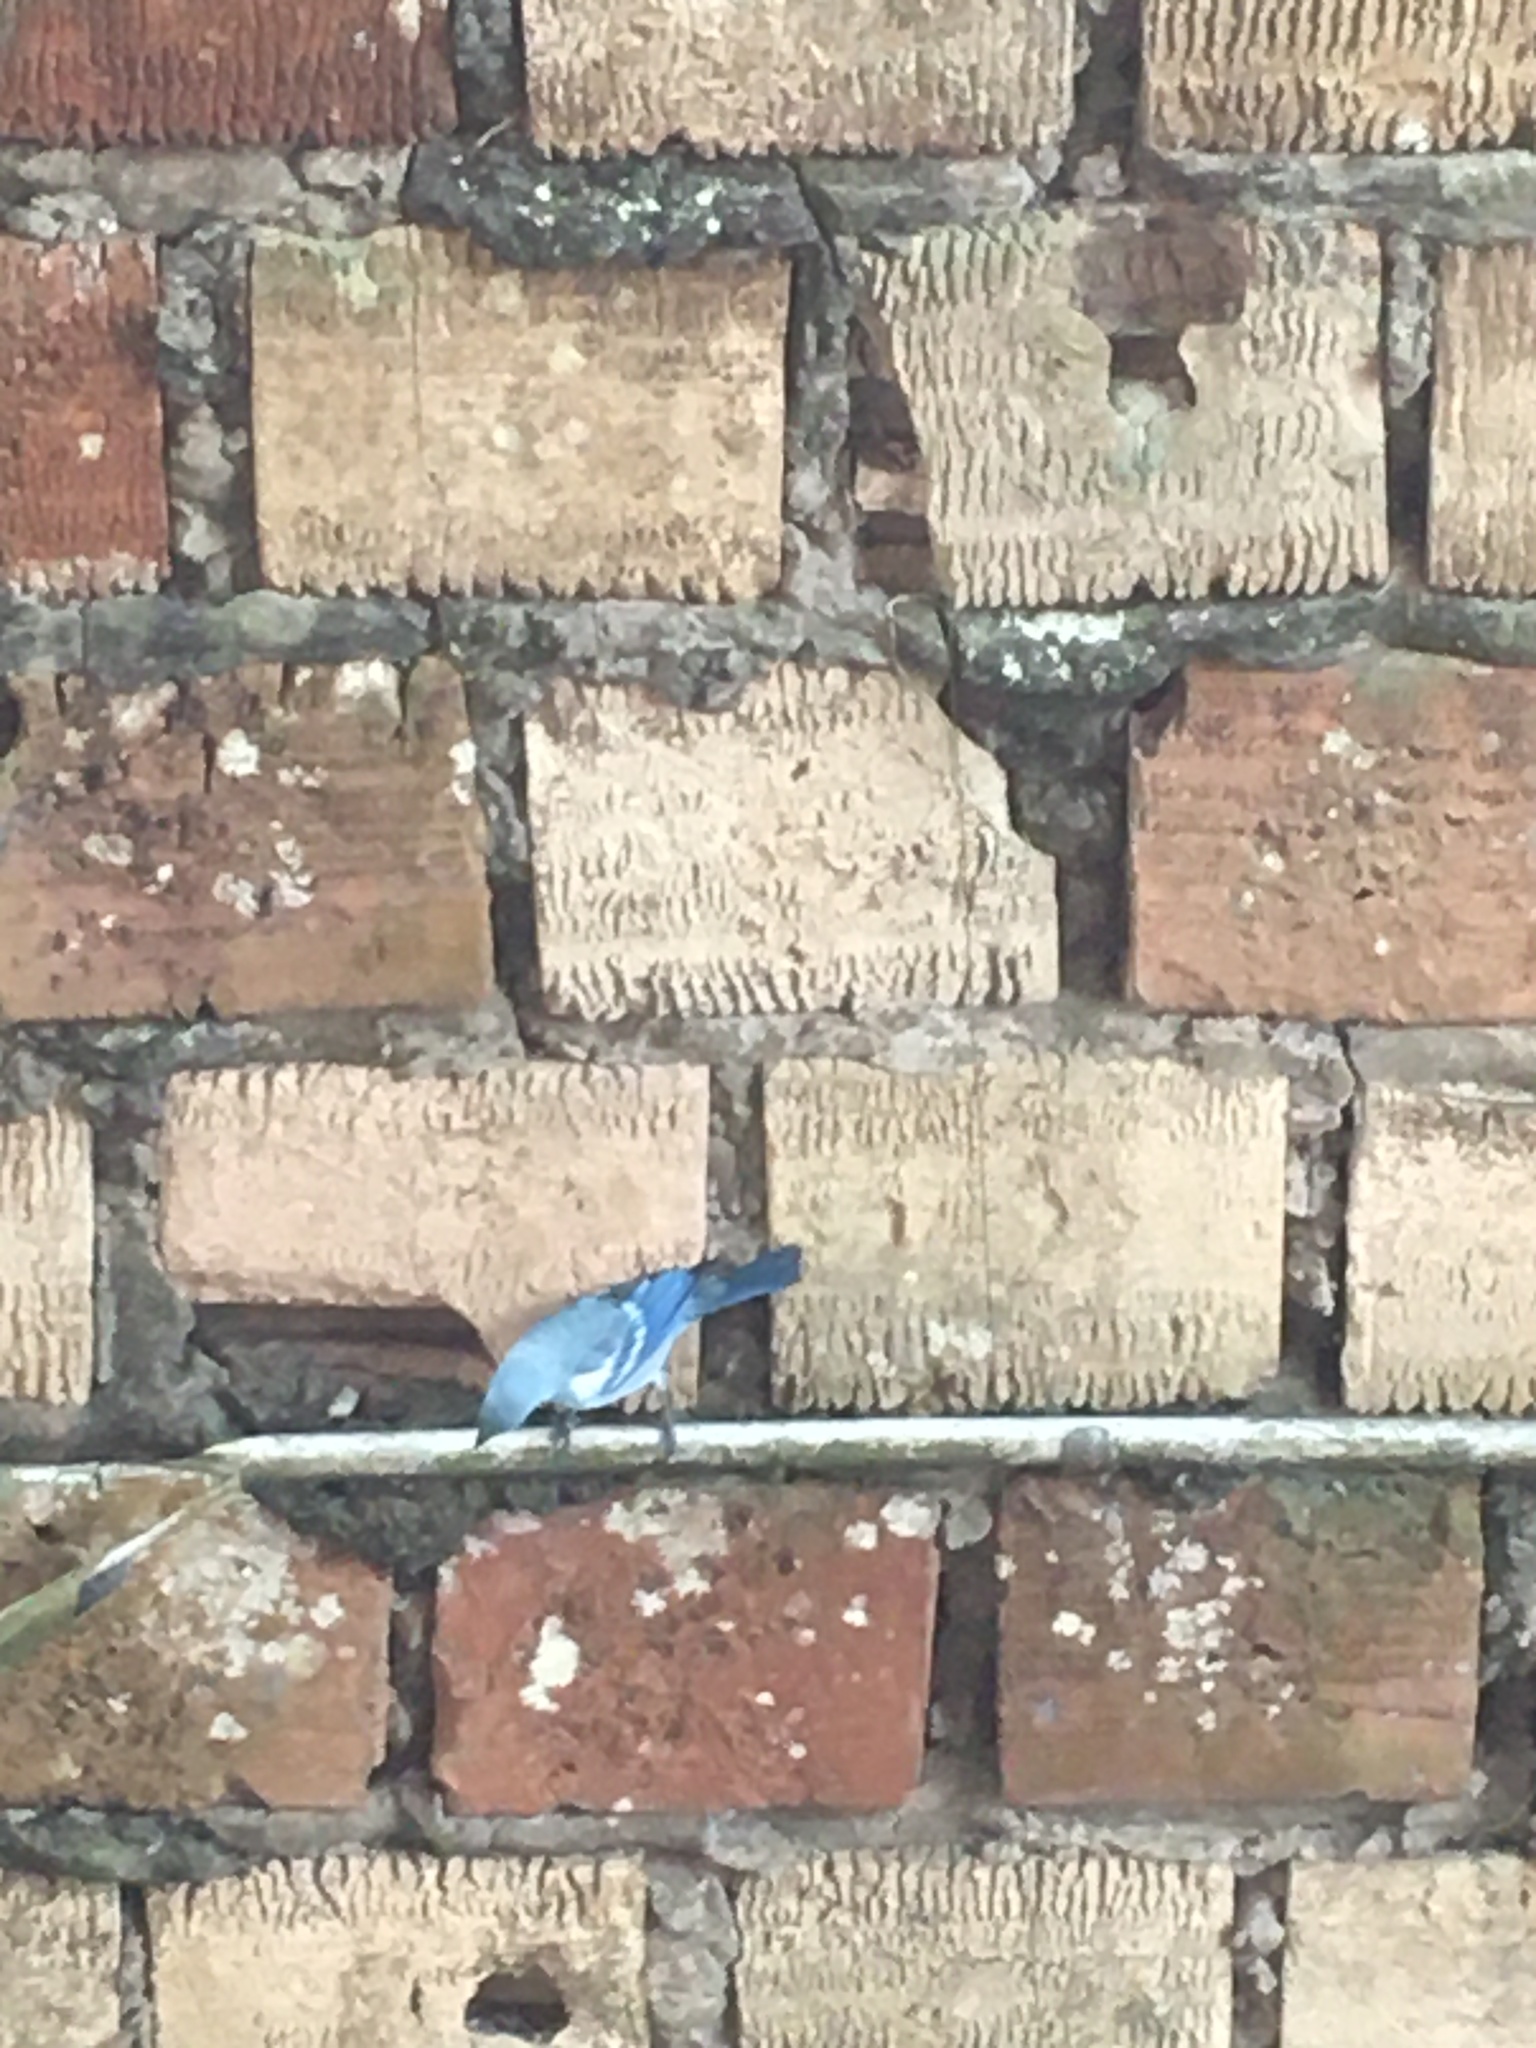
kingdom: Animalia
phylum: Chordata
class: Aves
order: Passeriformes
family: Thraupidae
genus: Thraupis
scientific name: Thraupis episcopus
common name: Blue-grey tanager
